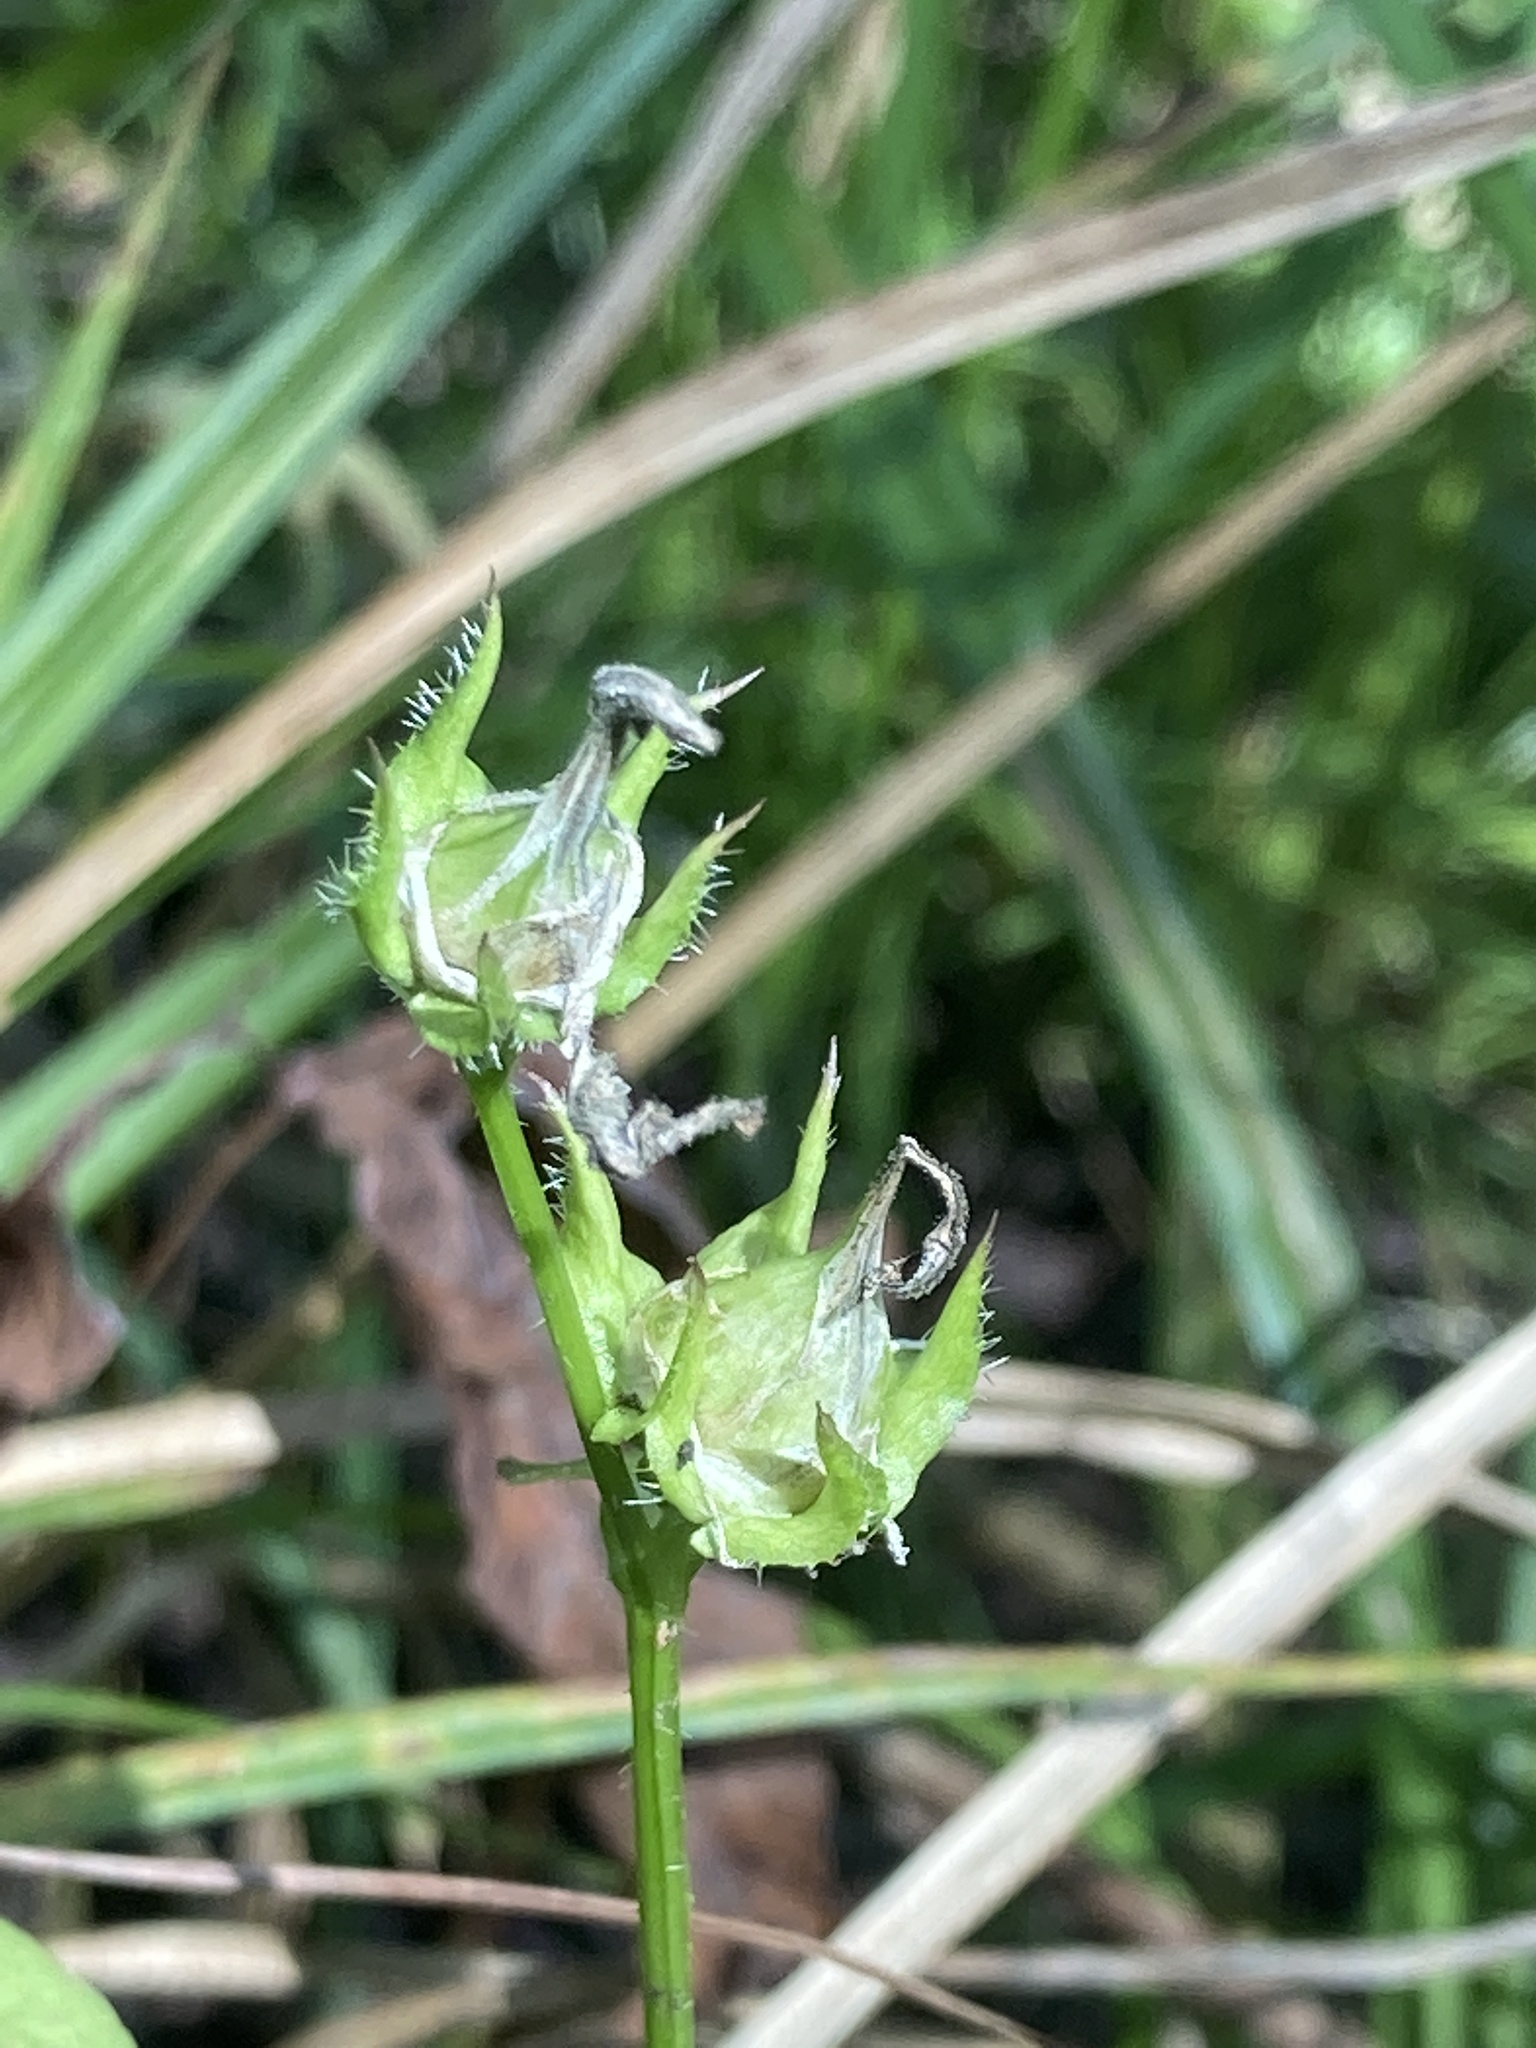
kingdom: Plantae
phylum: Tracheophyta
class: Magnoliopsida
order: Asterales
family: Campanulaceae
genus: Lobelia
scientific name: Lobelia siphilitica
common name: Great lobelia
